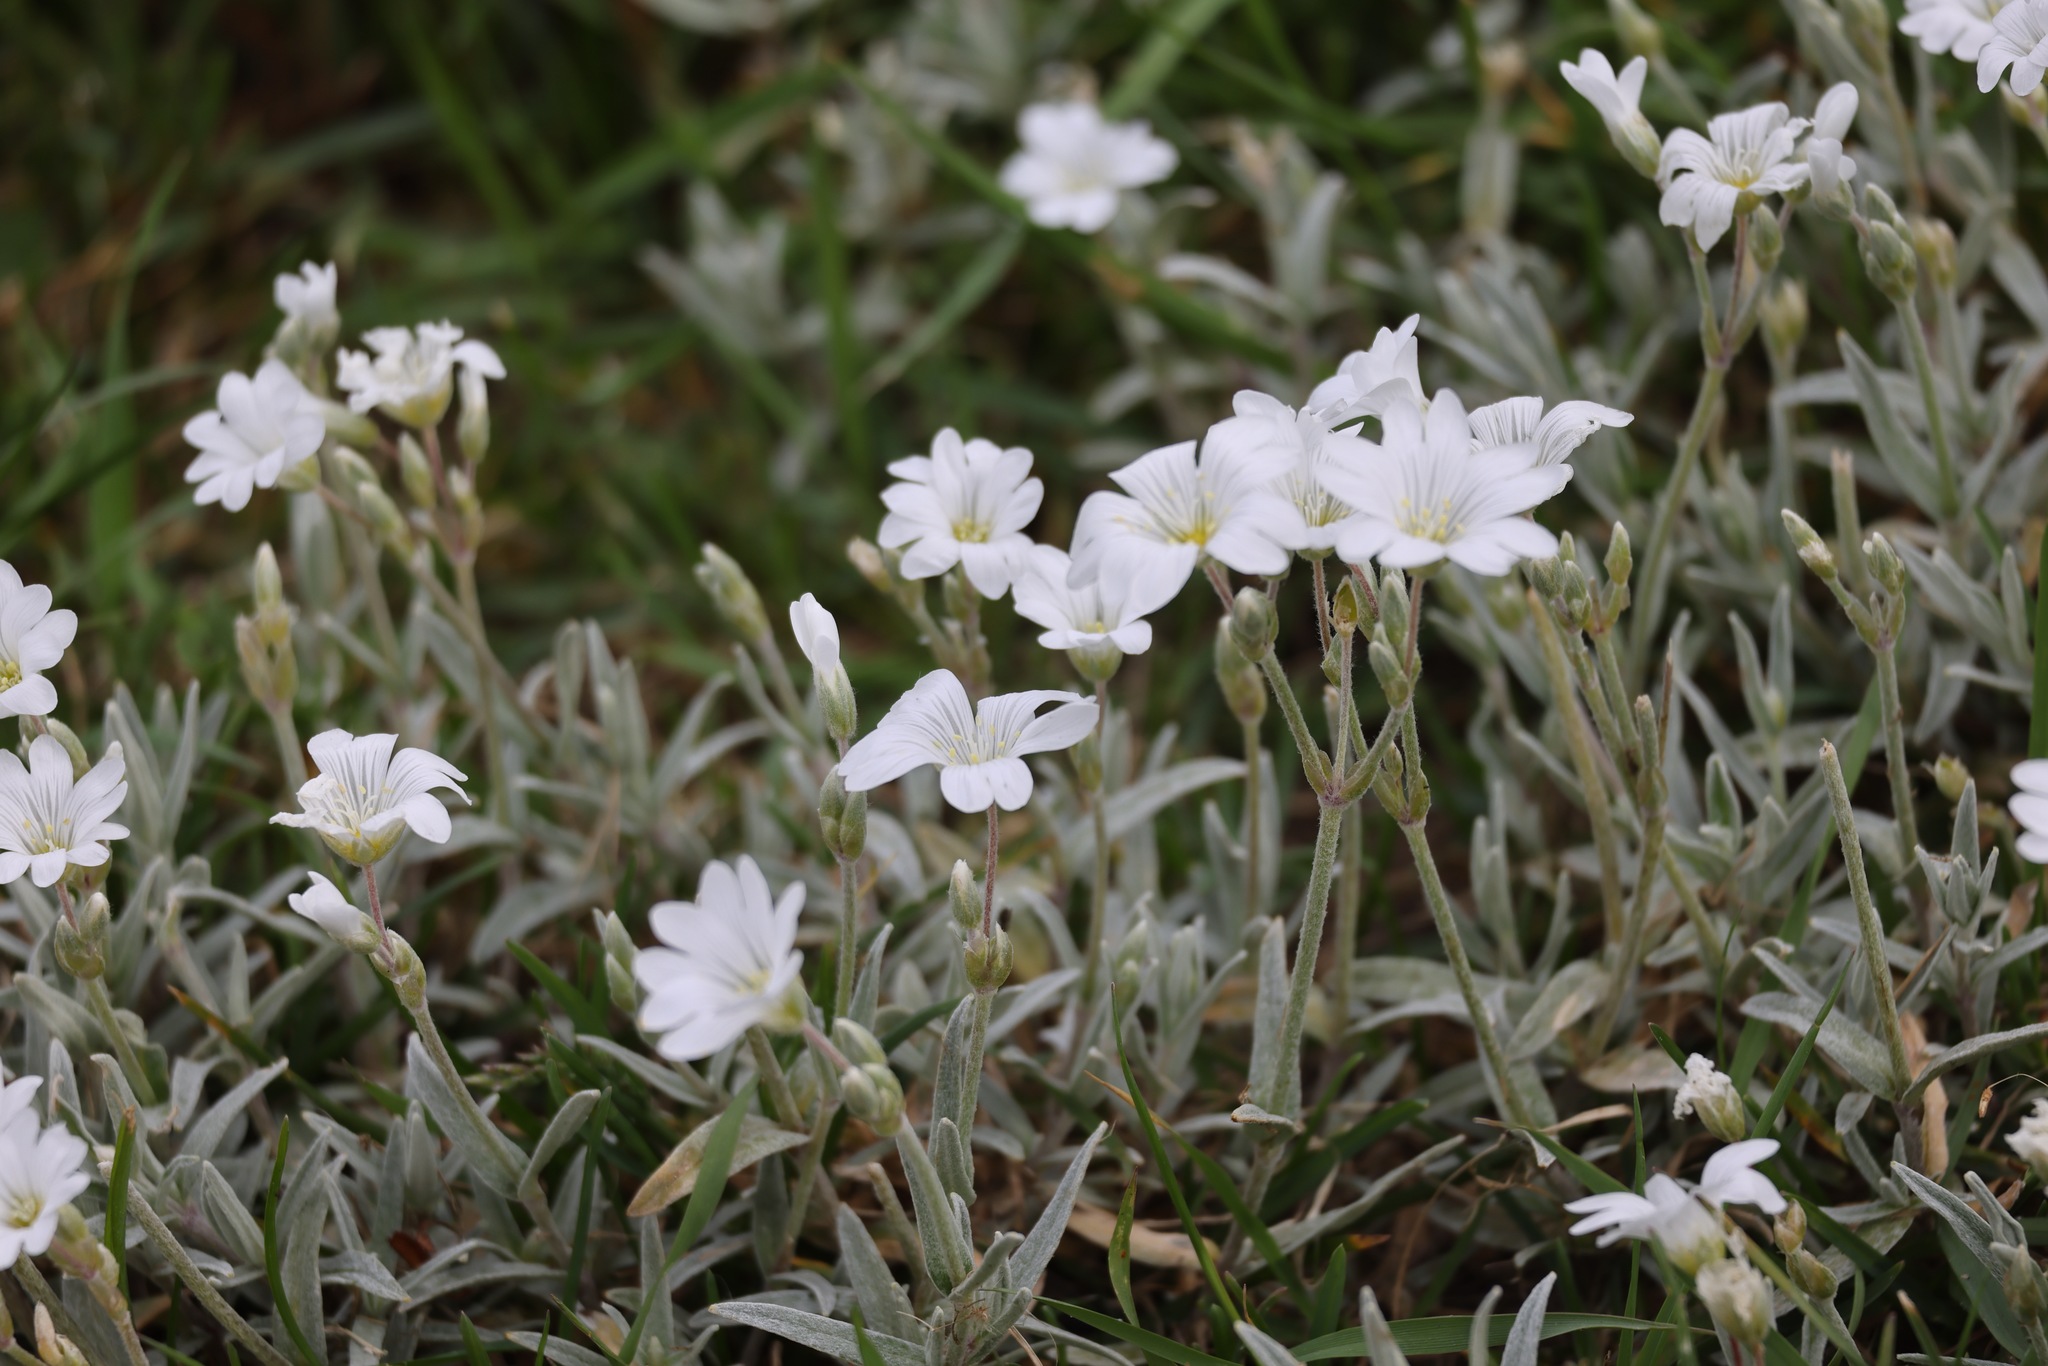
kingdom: Plantae
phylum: Tracheophyta
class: Magnoliopsida
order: Caryophyllales
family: Caryophyllaceae
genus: Cerastium
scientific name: Cerastium tomentosum
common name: Snow-in-summer
